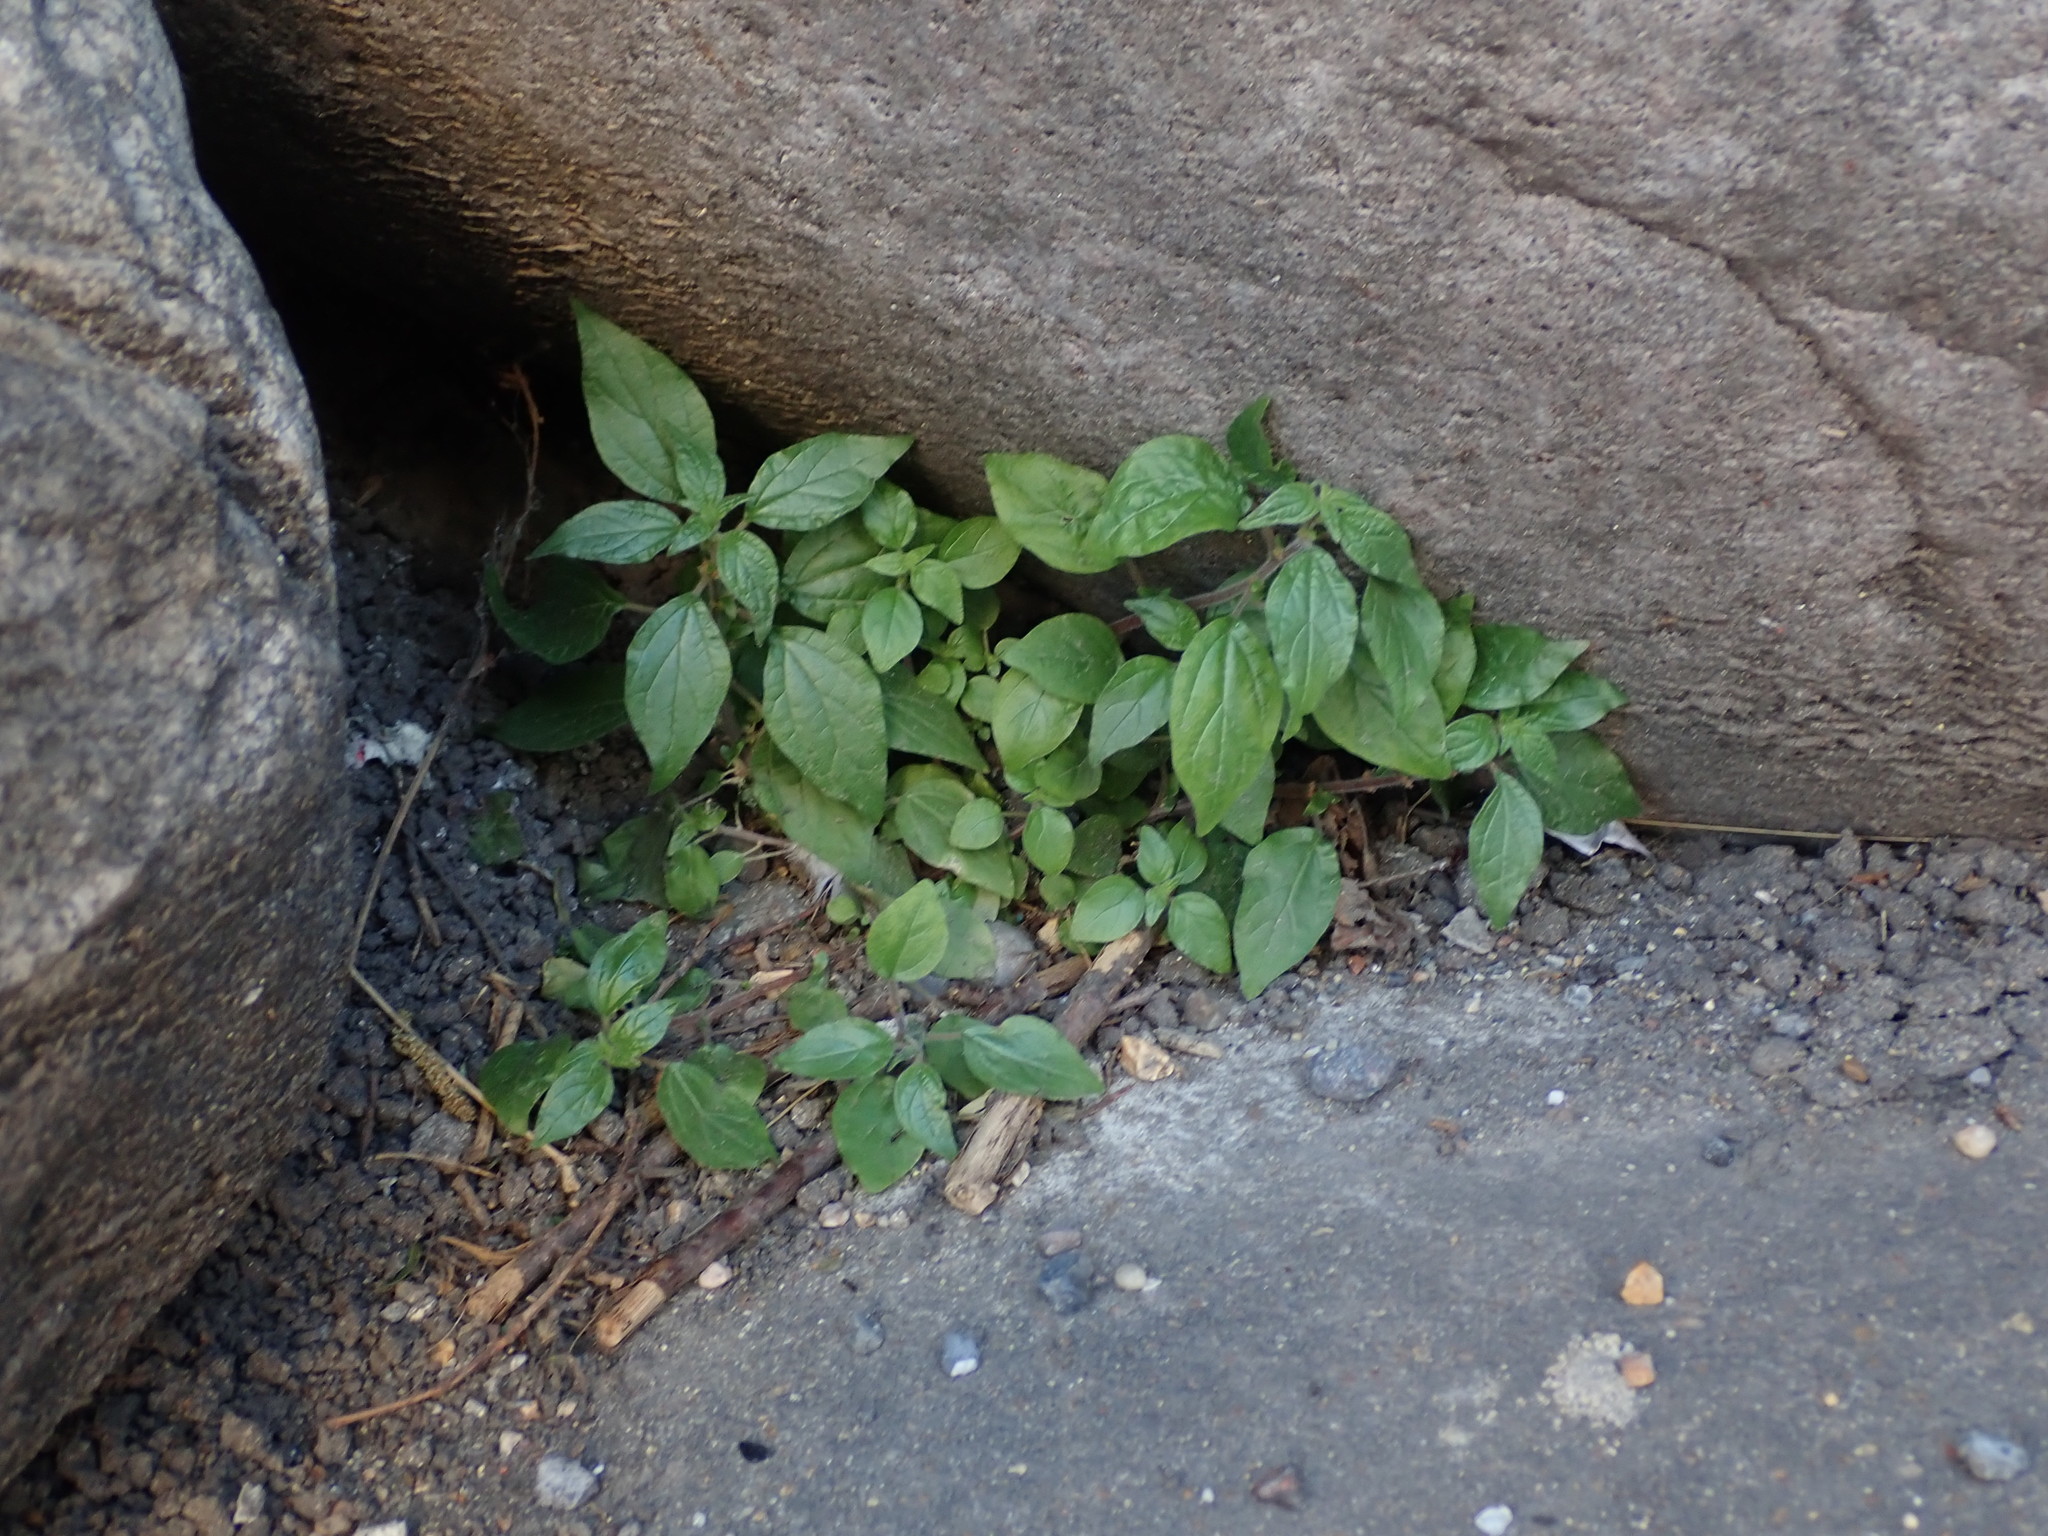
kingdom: Plantae
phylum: Tracheophyta
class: Magnoliopsida
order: Rosales
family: Urticaceae
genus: Parietaria
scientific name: Parietaria judaica
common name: Pellitory-of-the-wall
